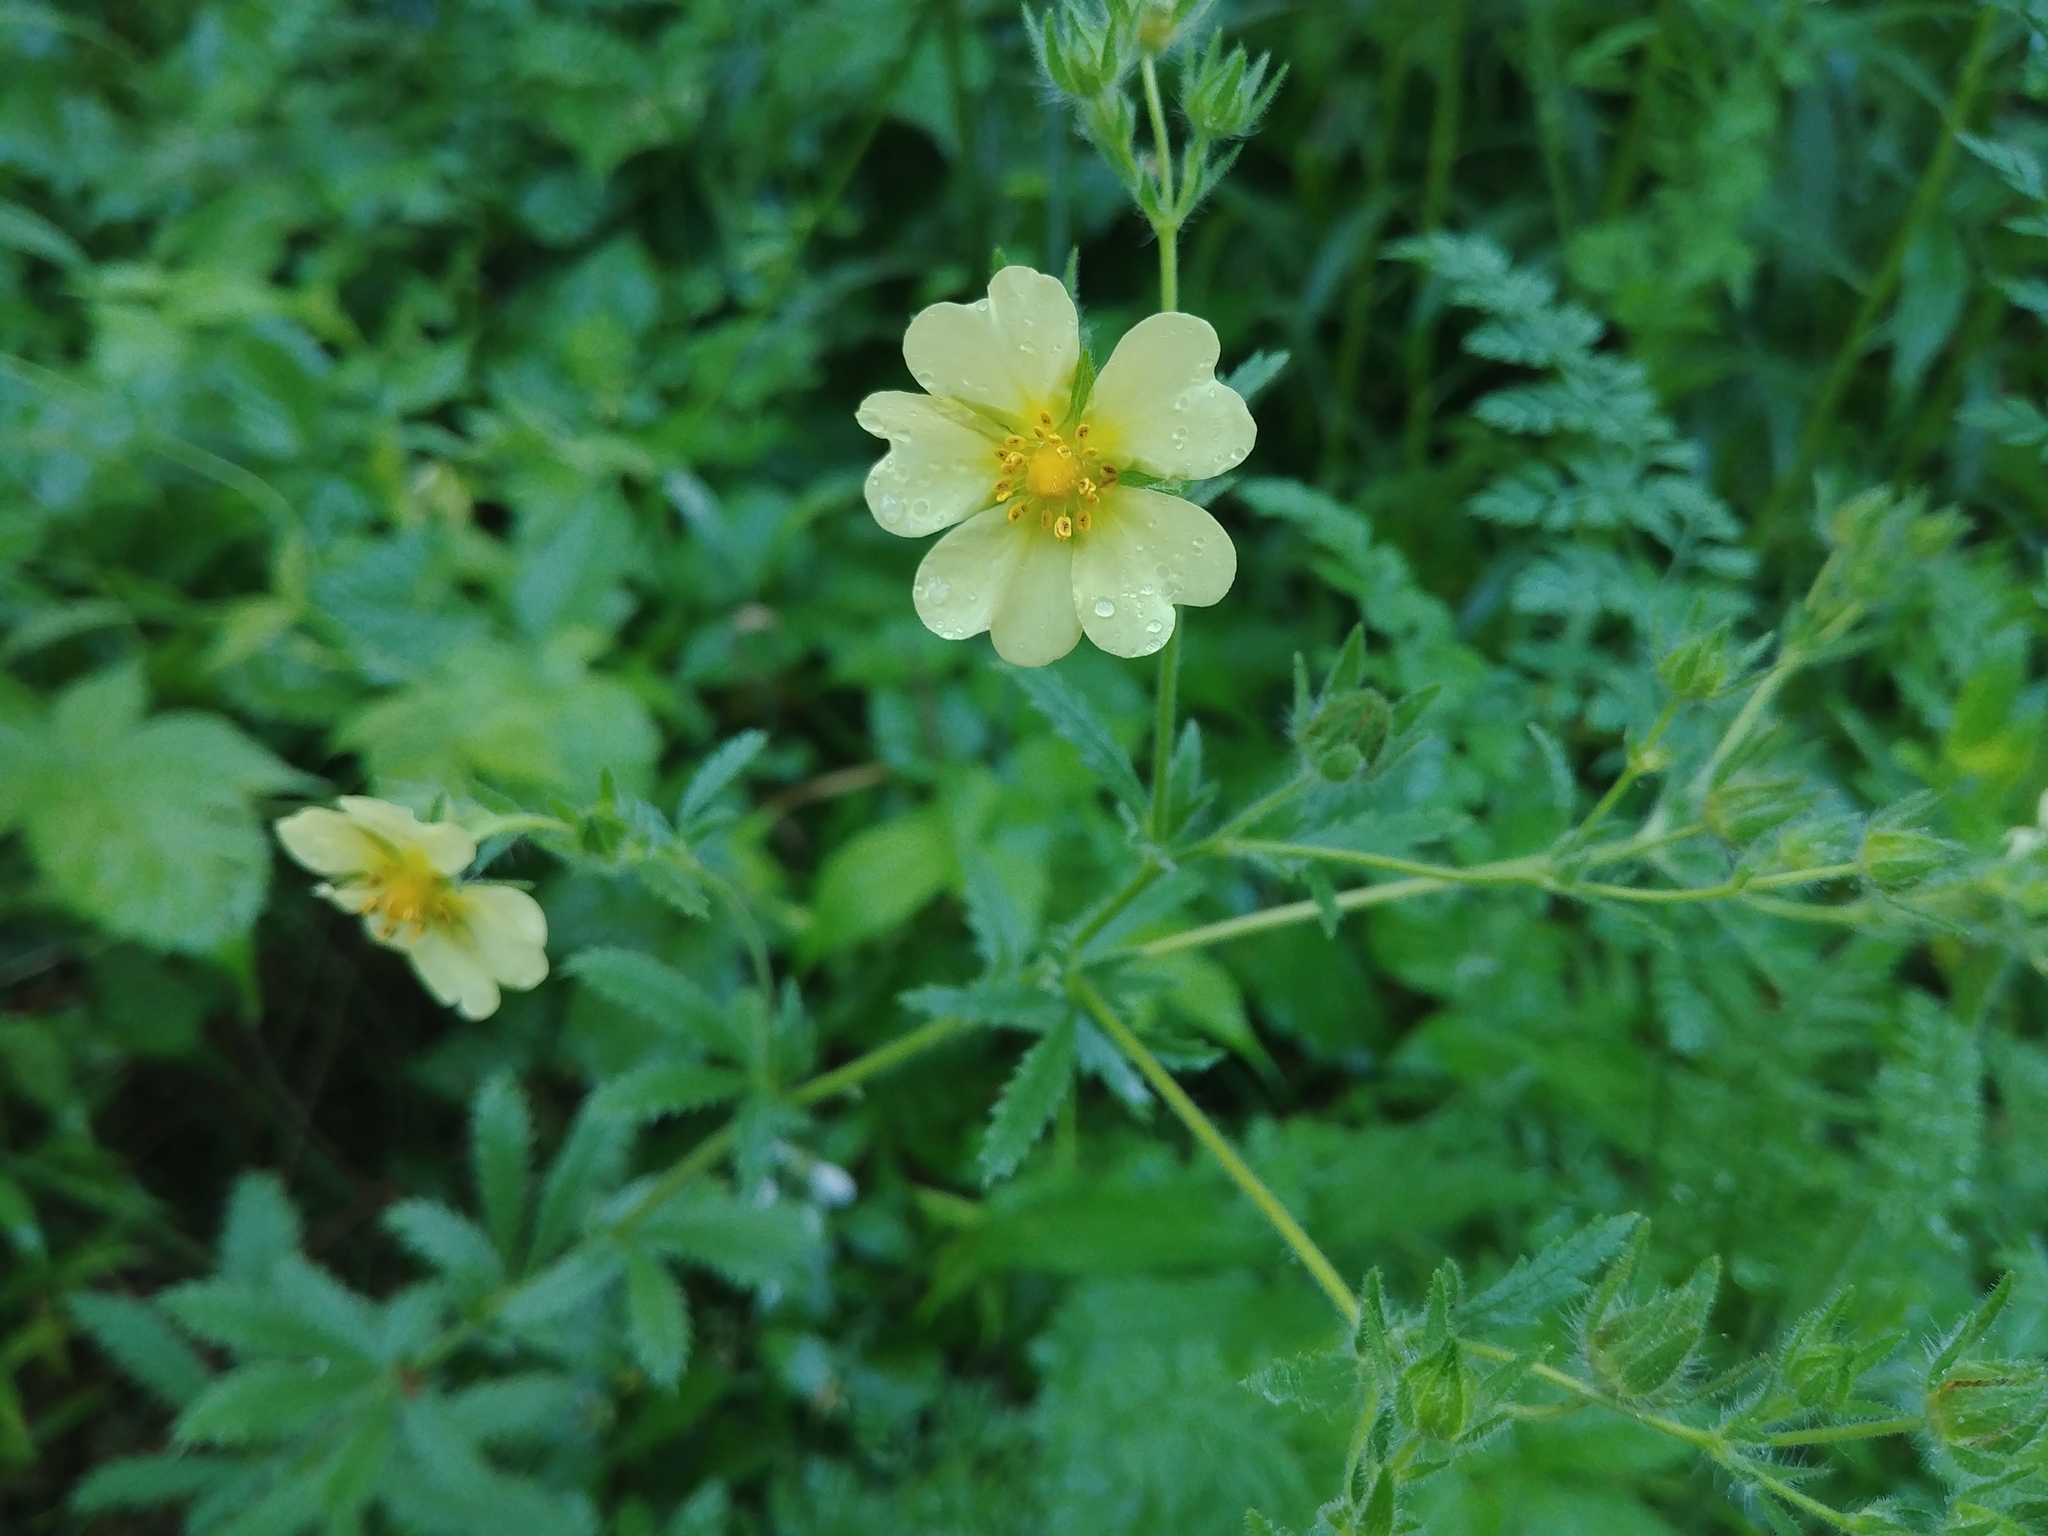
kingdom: Plantae
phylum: Tracheophyta
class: Magnoliopsida
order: Rosales
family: Rosaceae
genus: Potentilla
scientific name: Potentilla recta
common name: Sulphur cinquefoil
